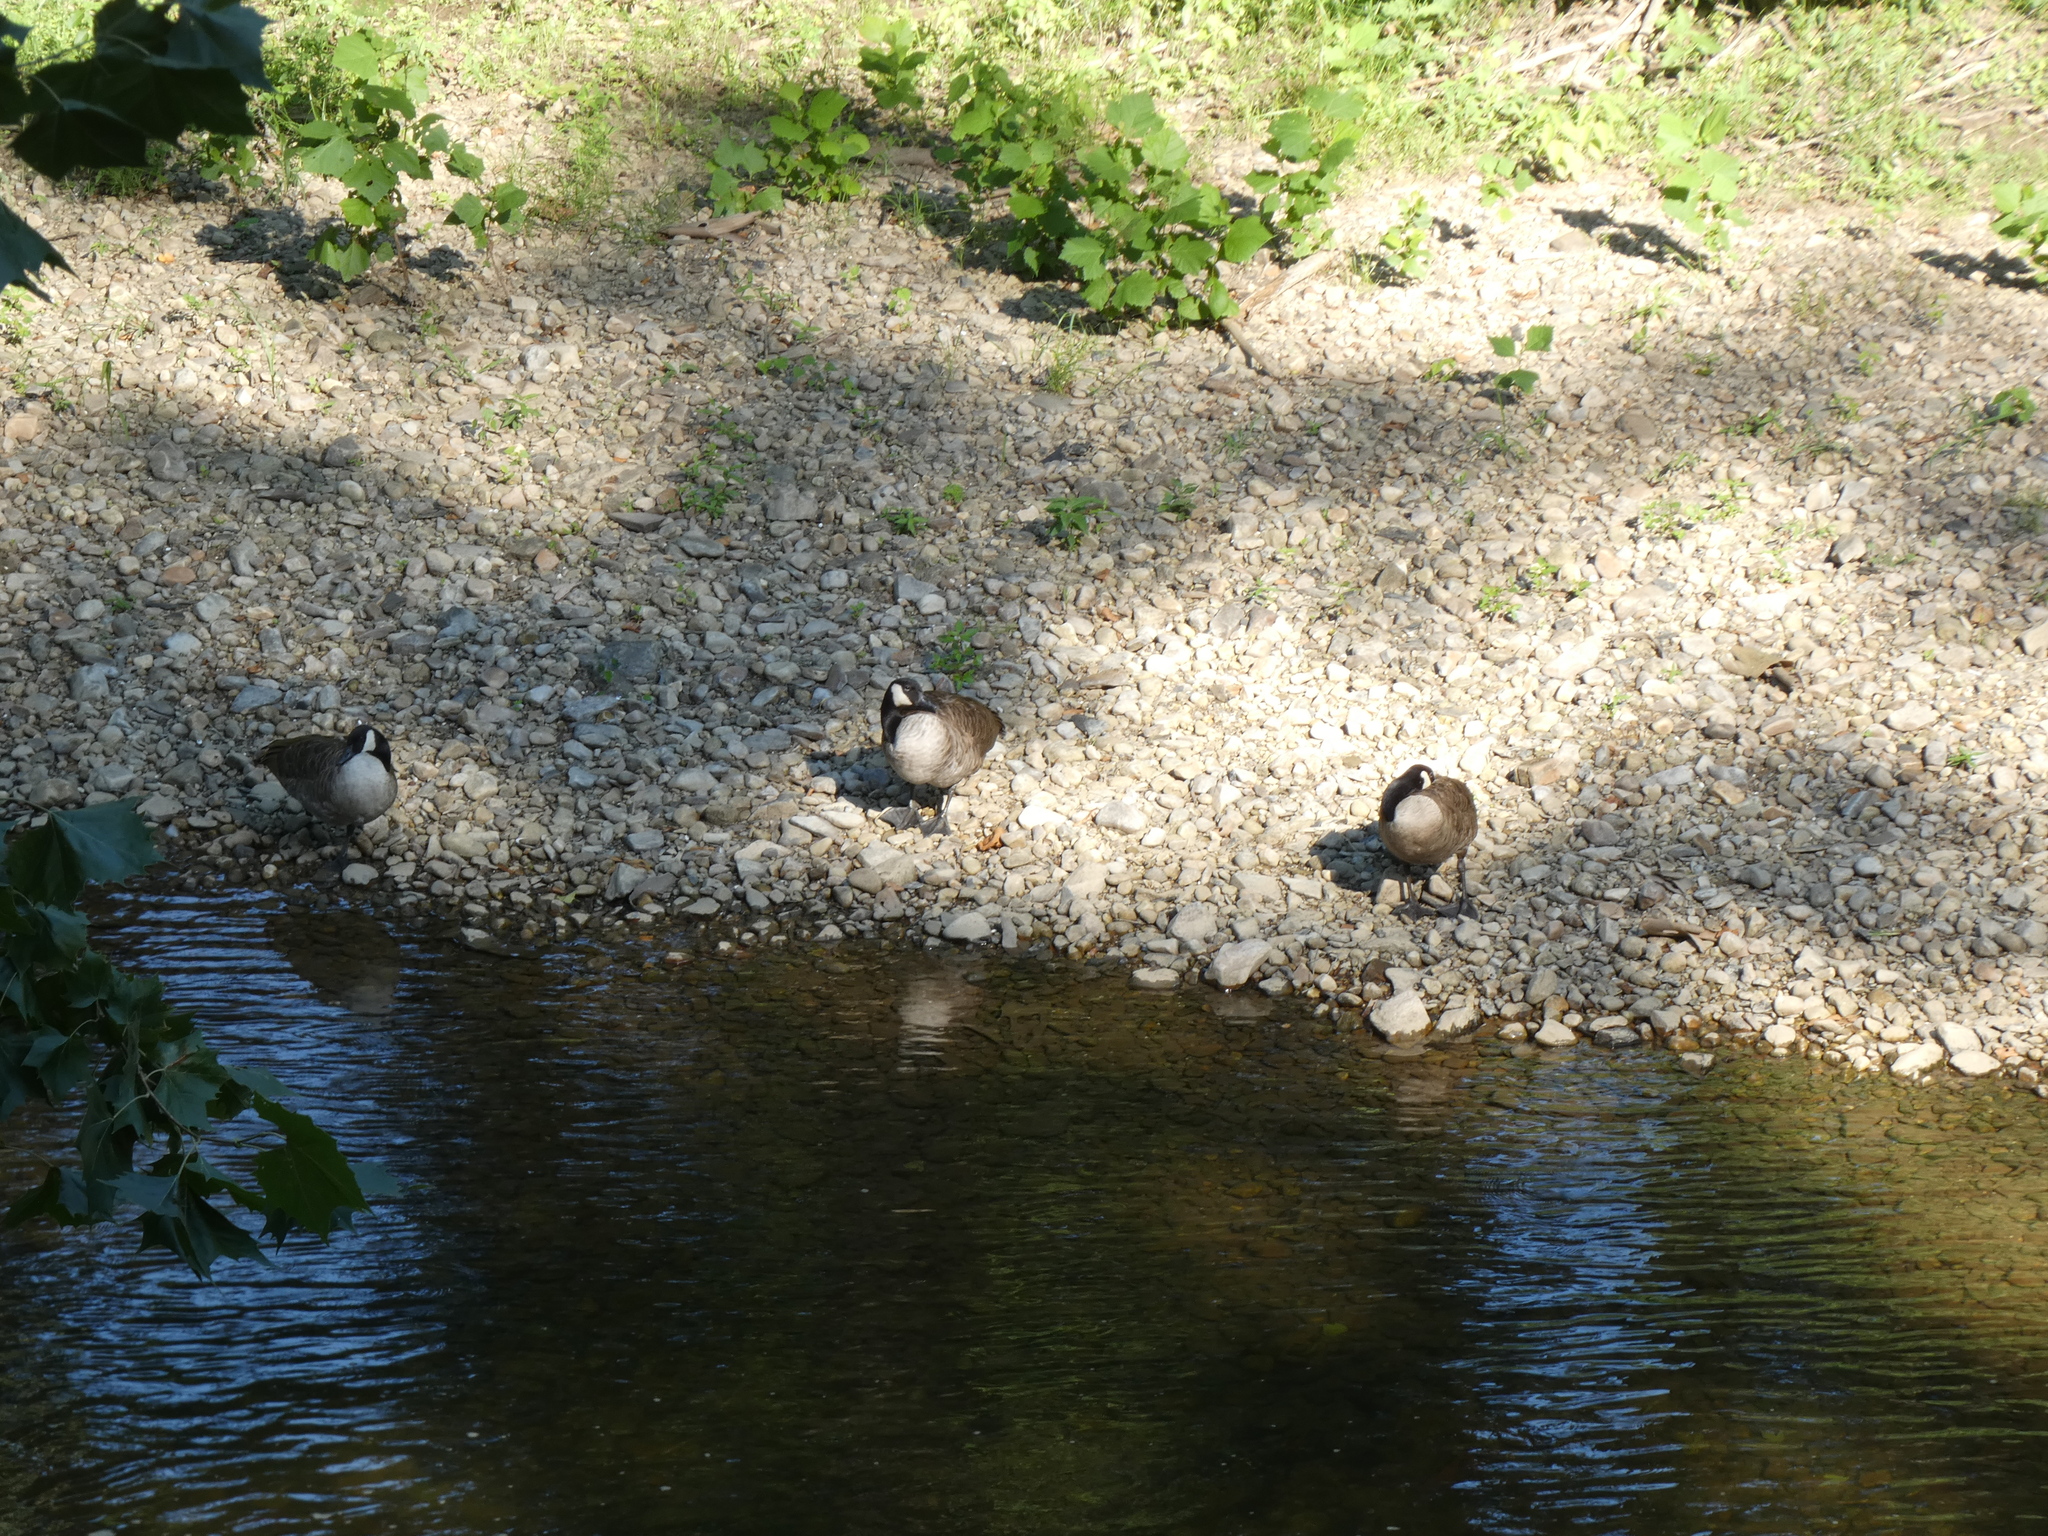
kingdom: Animalia
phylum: Chordata
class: Aves
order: Anseriformes
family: Anatidae
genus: Branta
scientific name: Branta canadensis
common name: Canada goose
